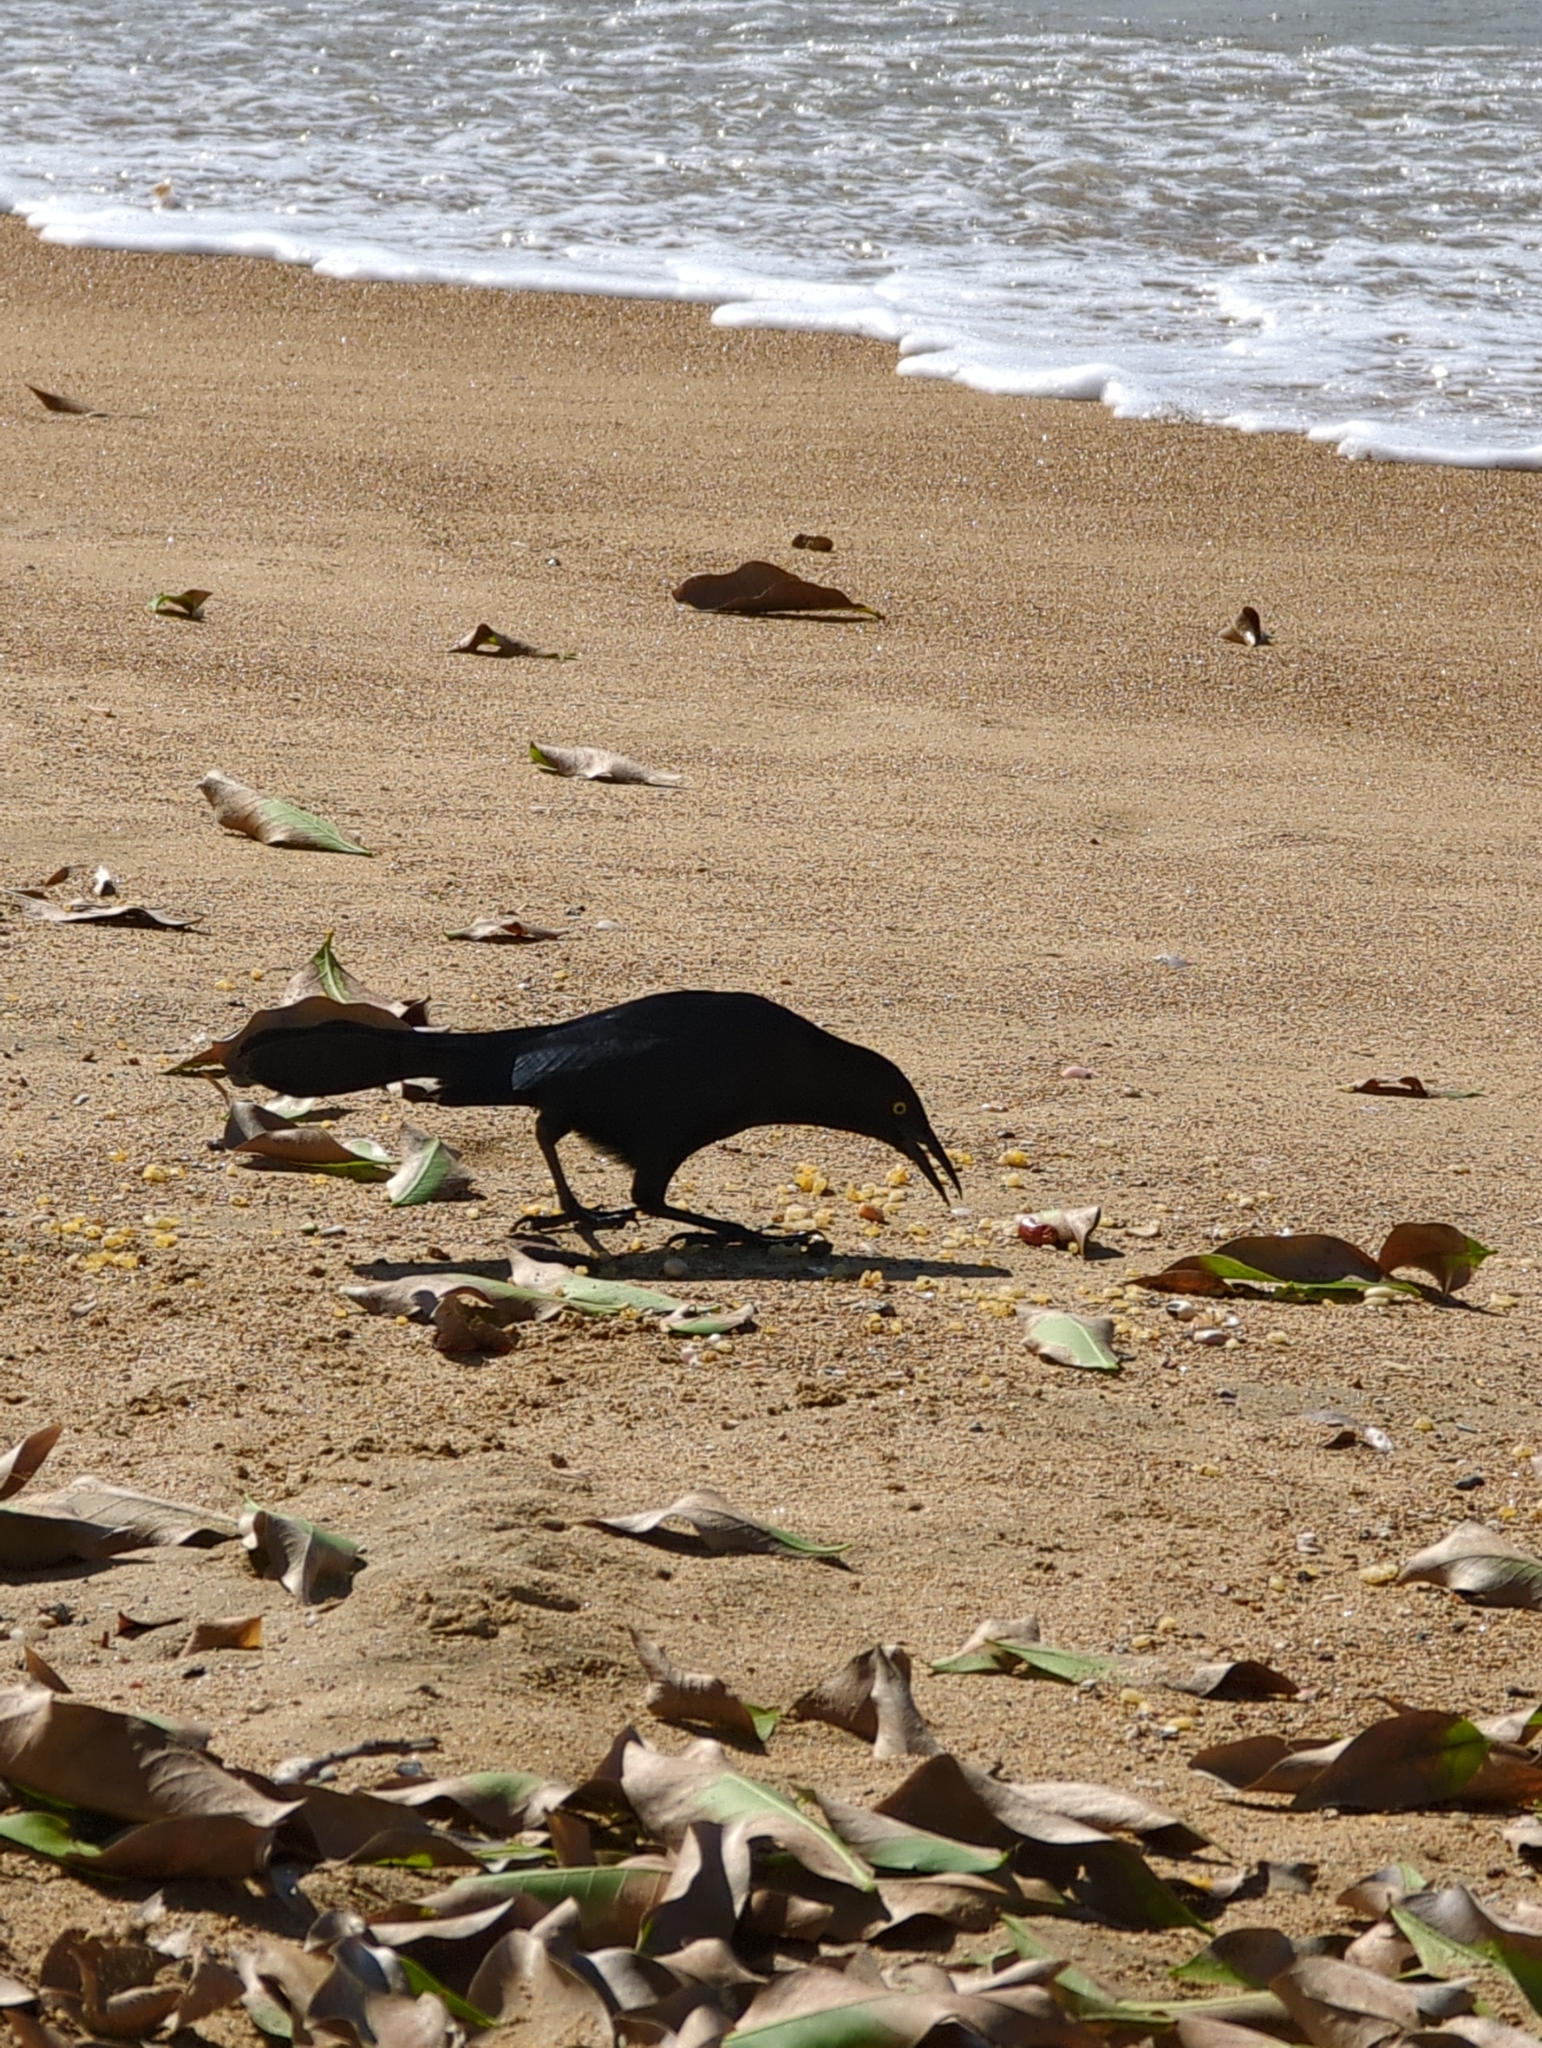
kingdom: Animalia
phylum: Chordata
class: Aves
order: Passeriformes
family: Icteridae
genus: Quiscalus
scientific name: Quiscalus niger
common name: Greater antillean grackle
